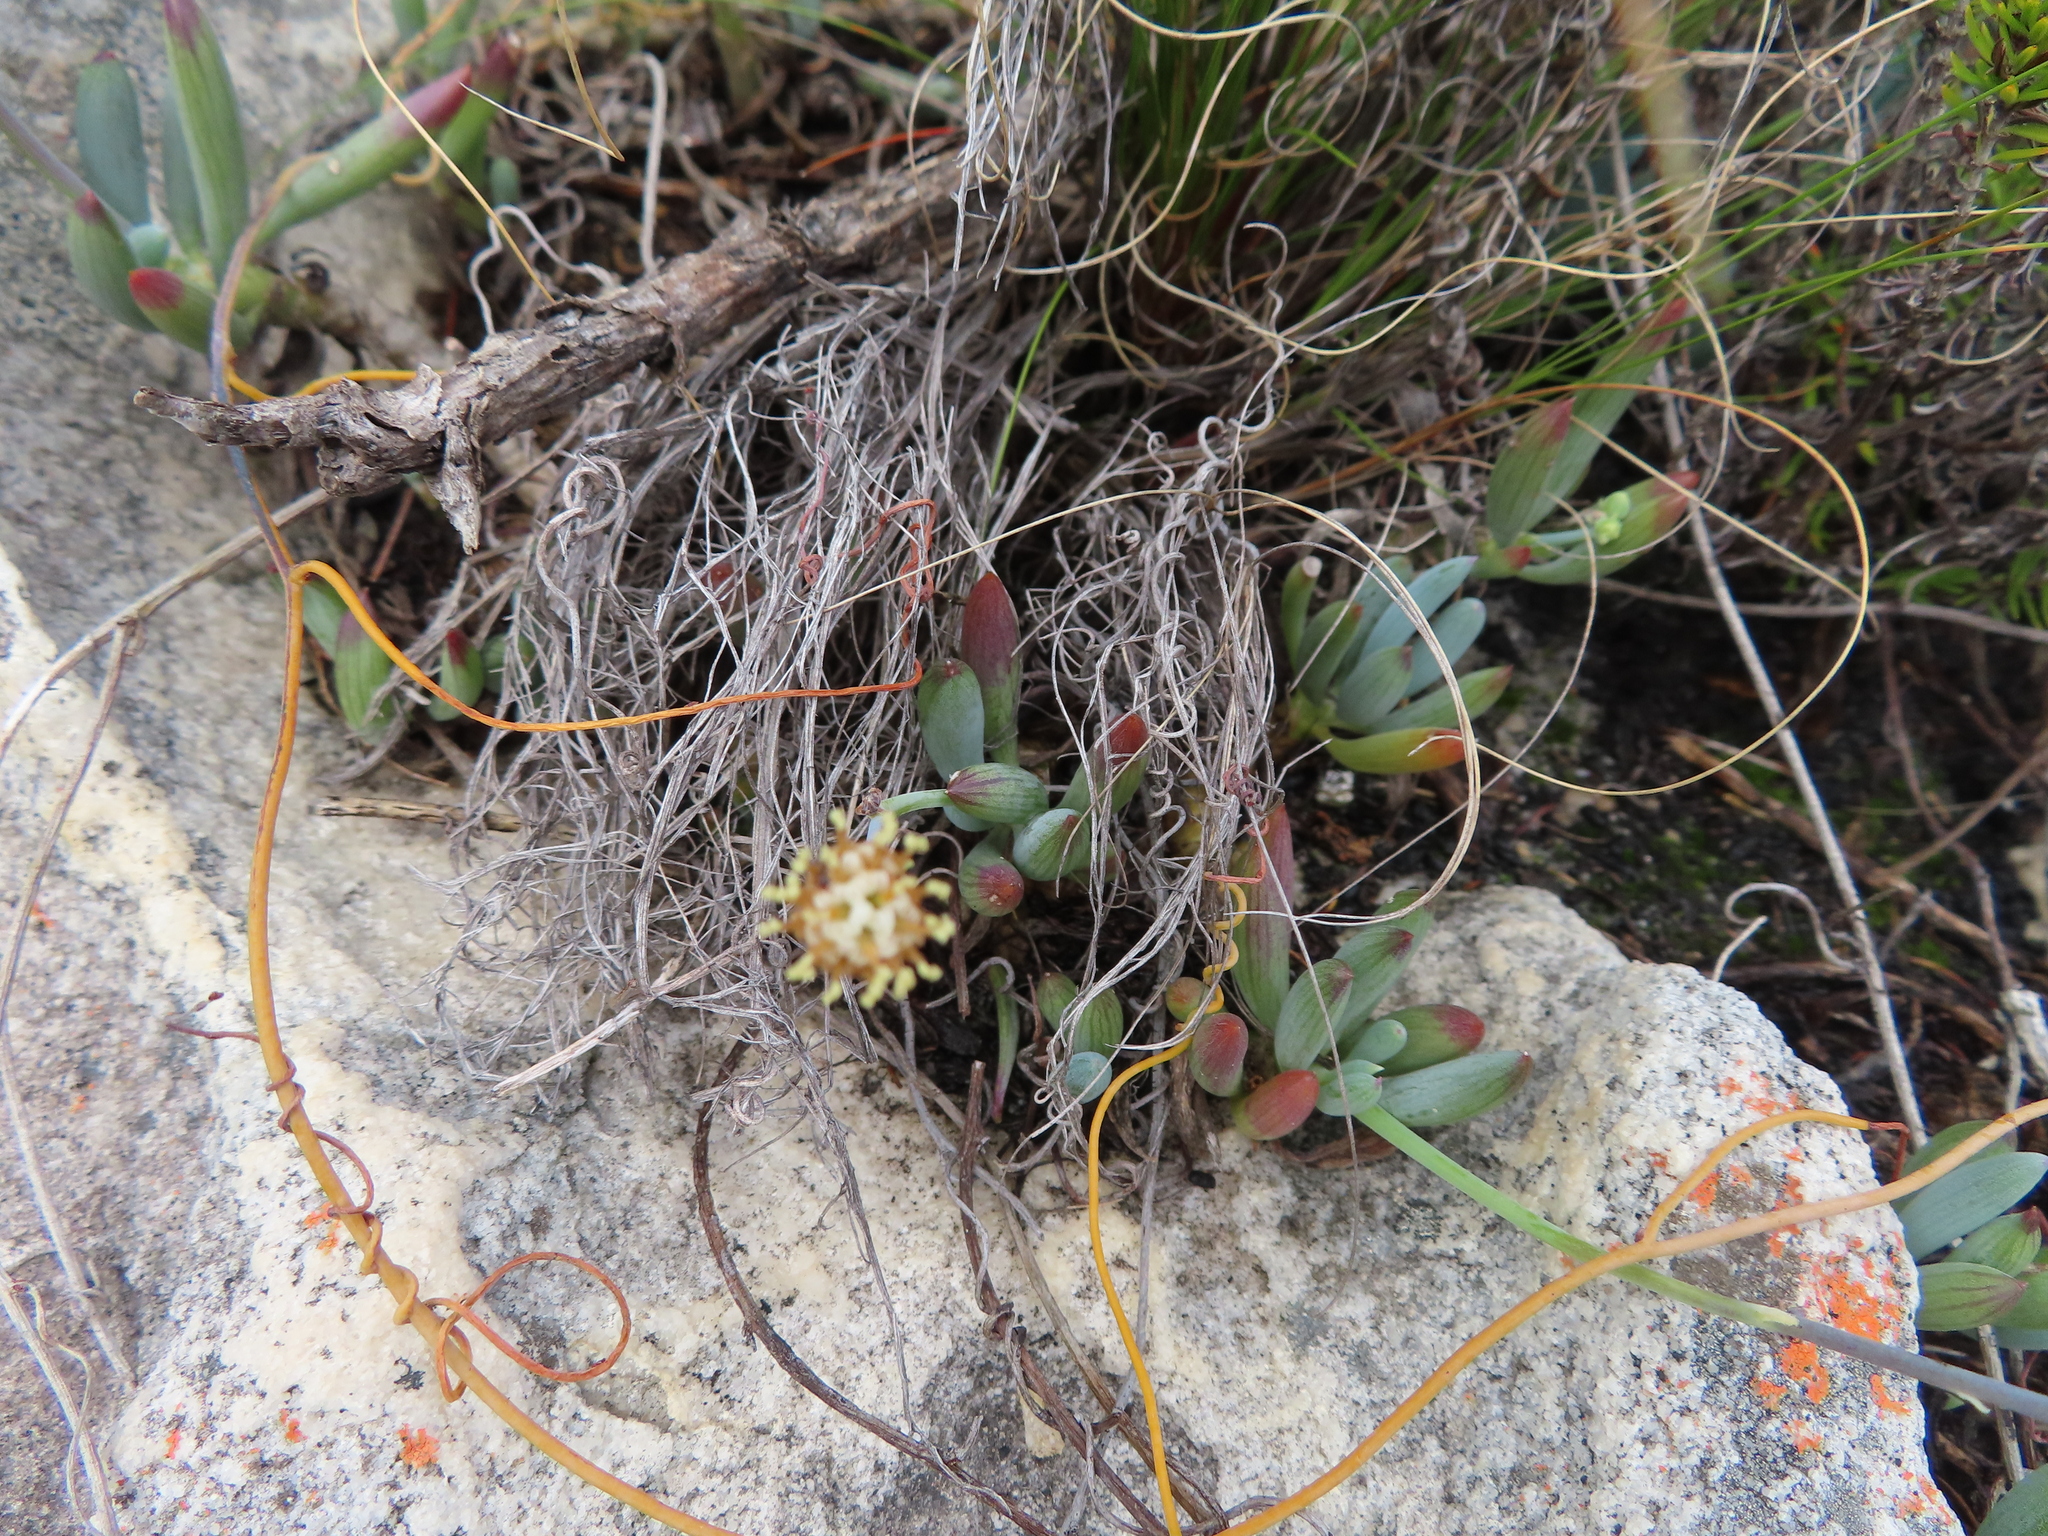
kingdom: Plantae
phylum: Tracheophyta
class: Magnoliopsida
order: Asterales
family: Asteraceae
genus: Curio
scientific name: Curio crassulifolius
